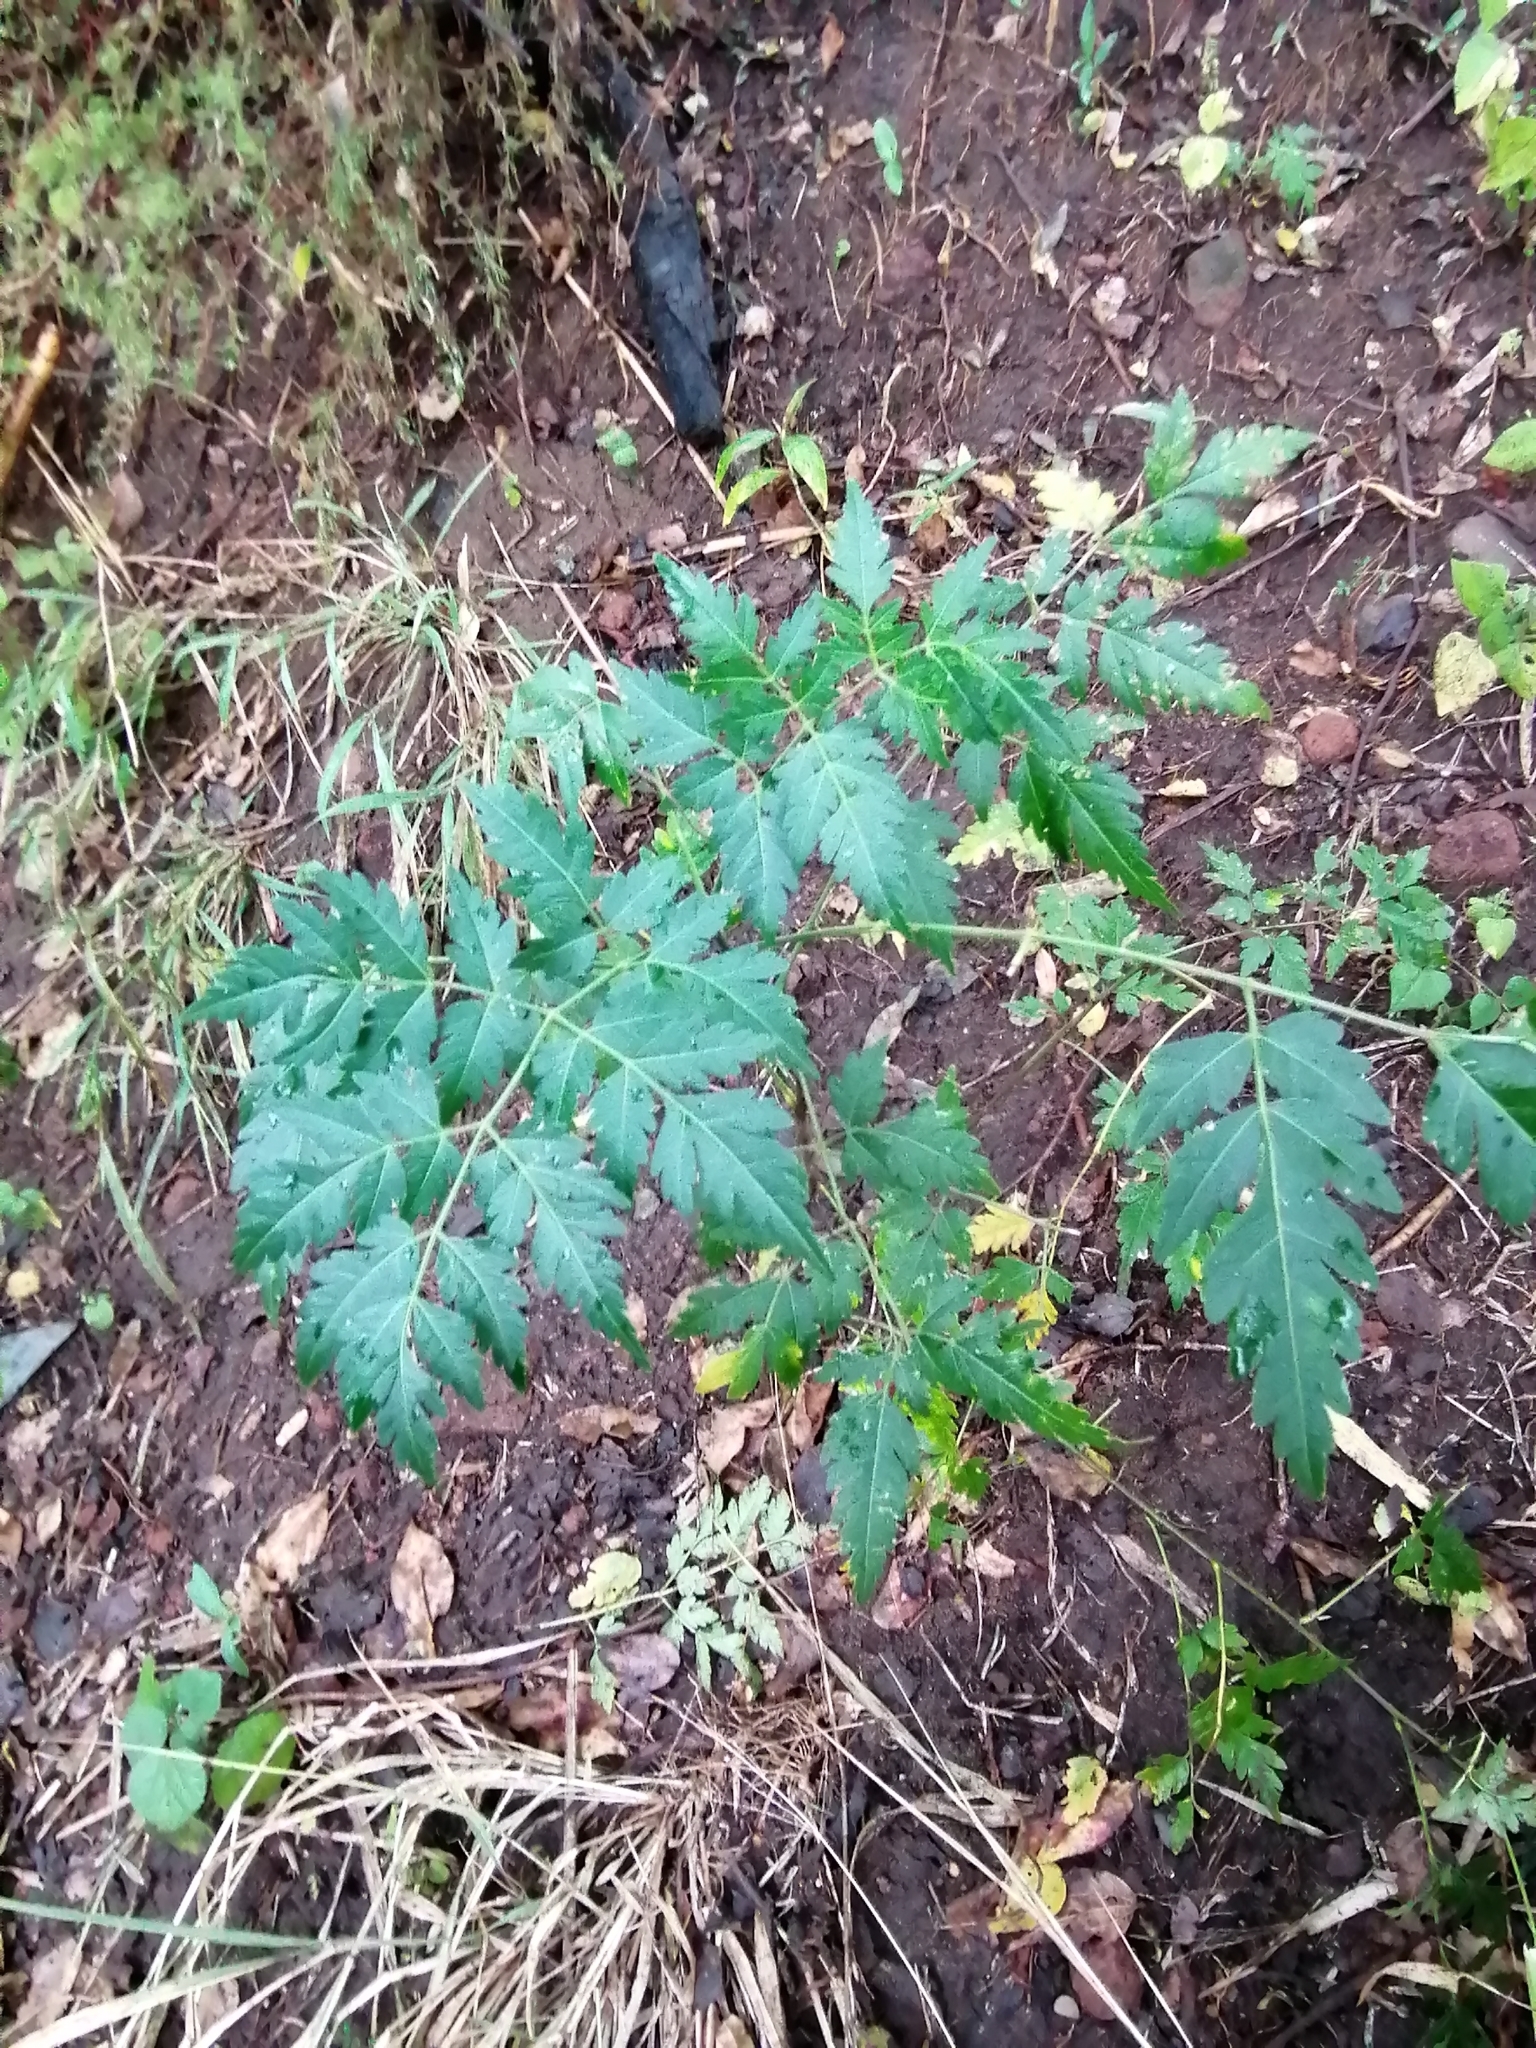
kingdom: Plantae
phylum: Tracheophyta
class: Magnoliopsida
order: Sapindales
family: Meliaceae
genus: Melia
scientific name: Melia azedarach
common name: Chinaberrytree
